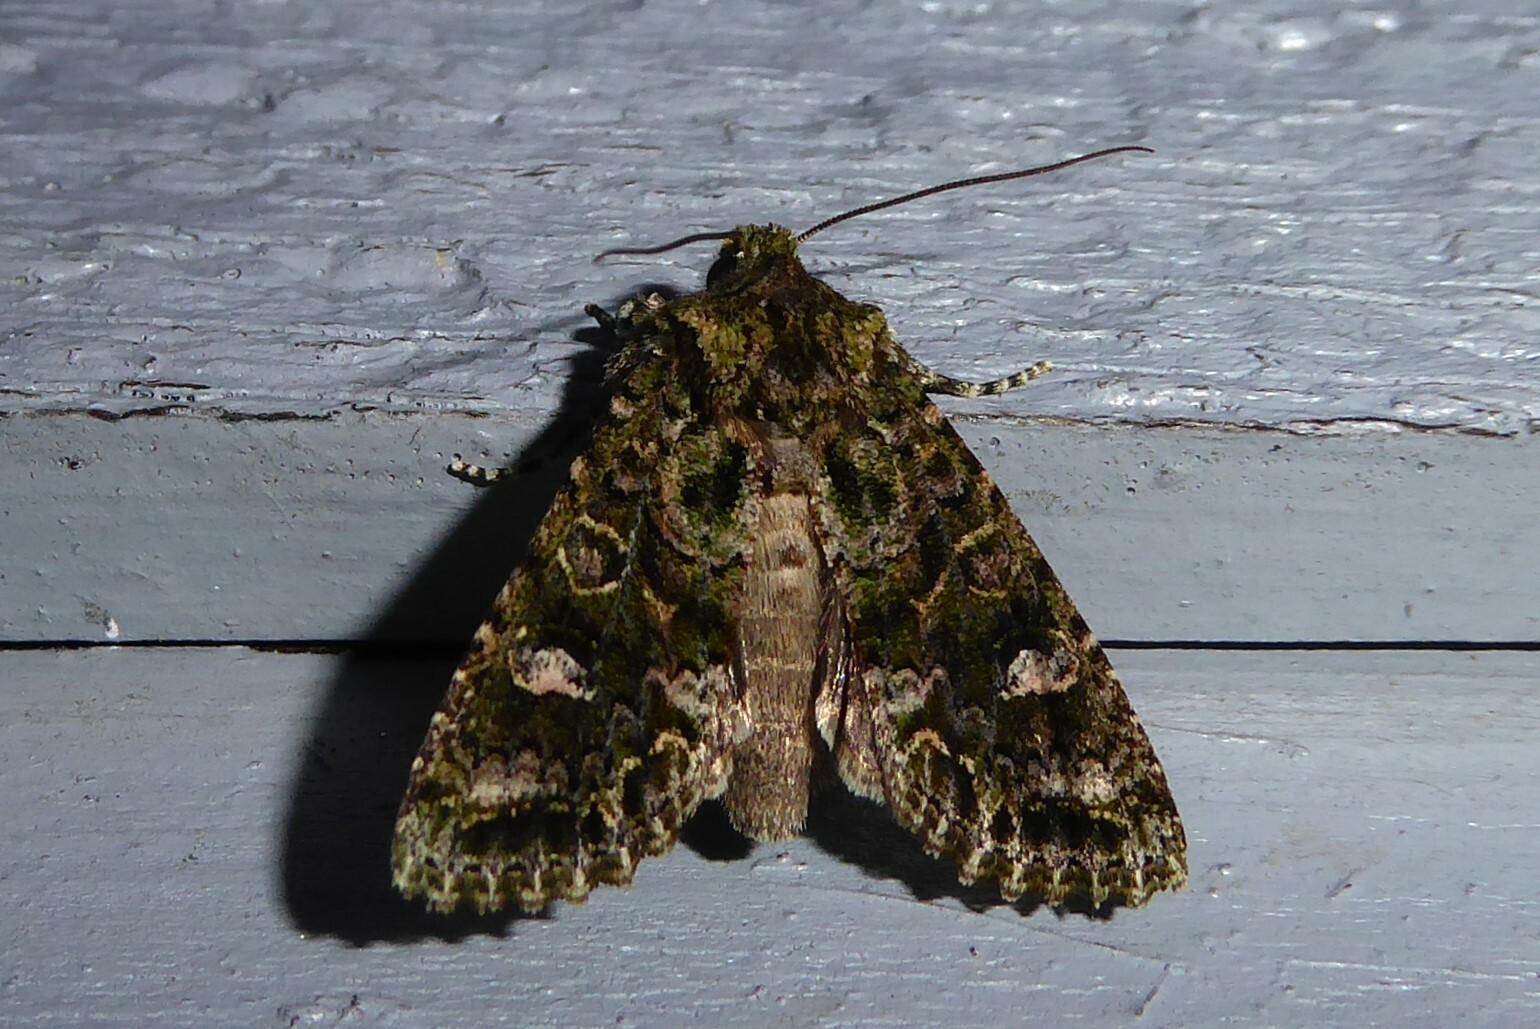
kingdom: Animalia
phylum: Arthropoda
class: Insecta
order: Lepidoptera
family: Noctuidae
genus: Ichneutica
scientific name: Ichneutica
